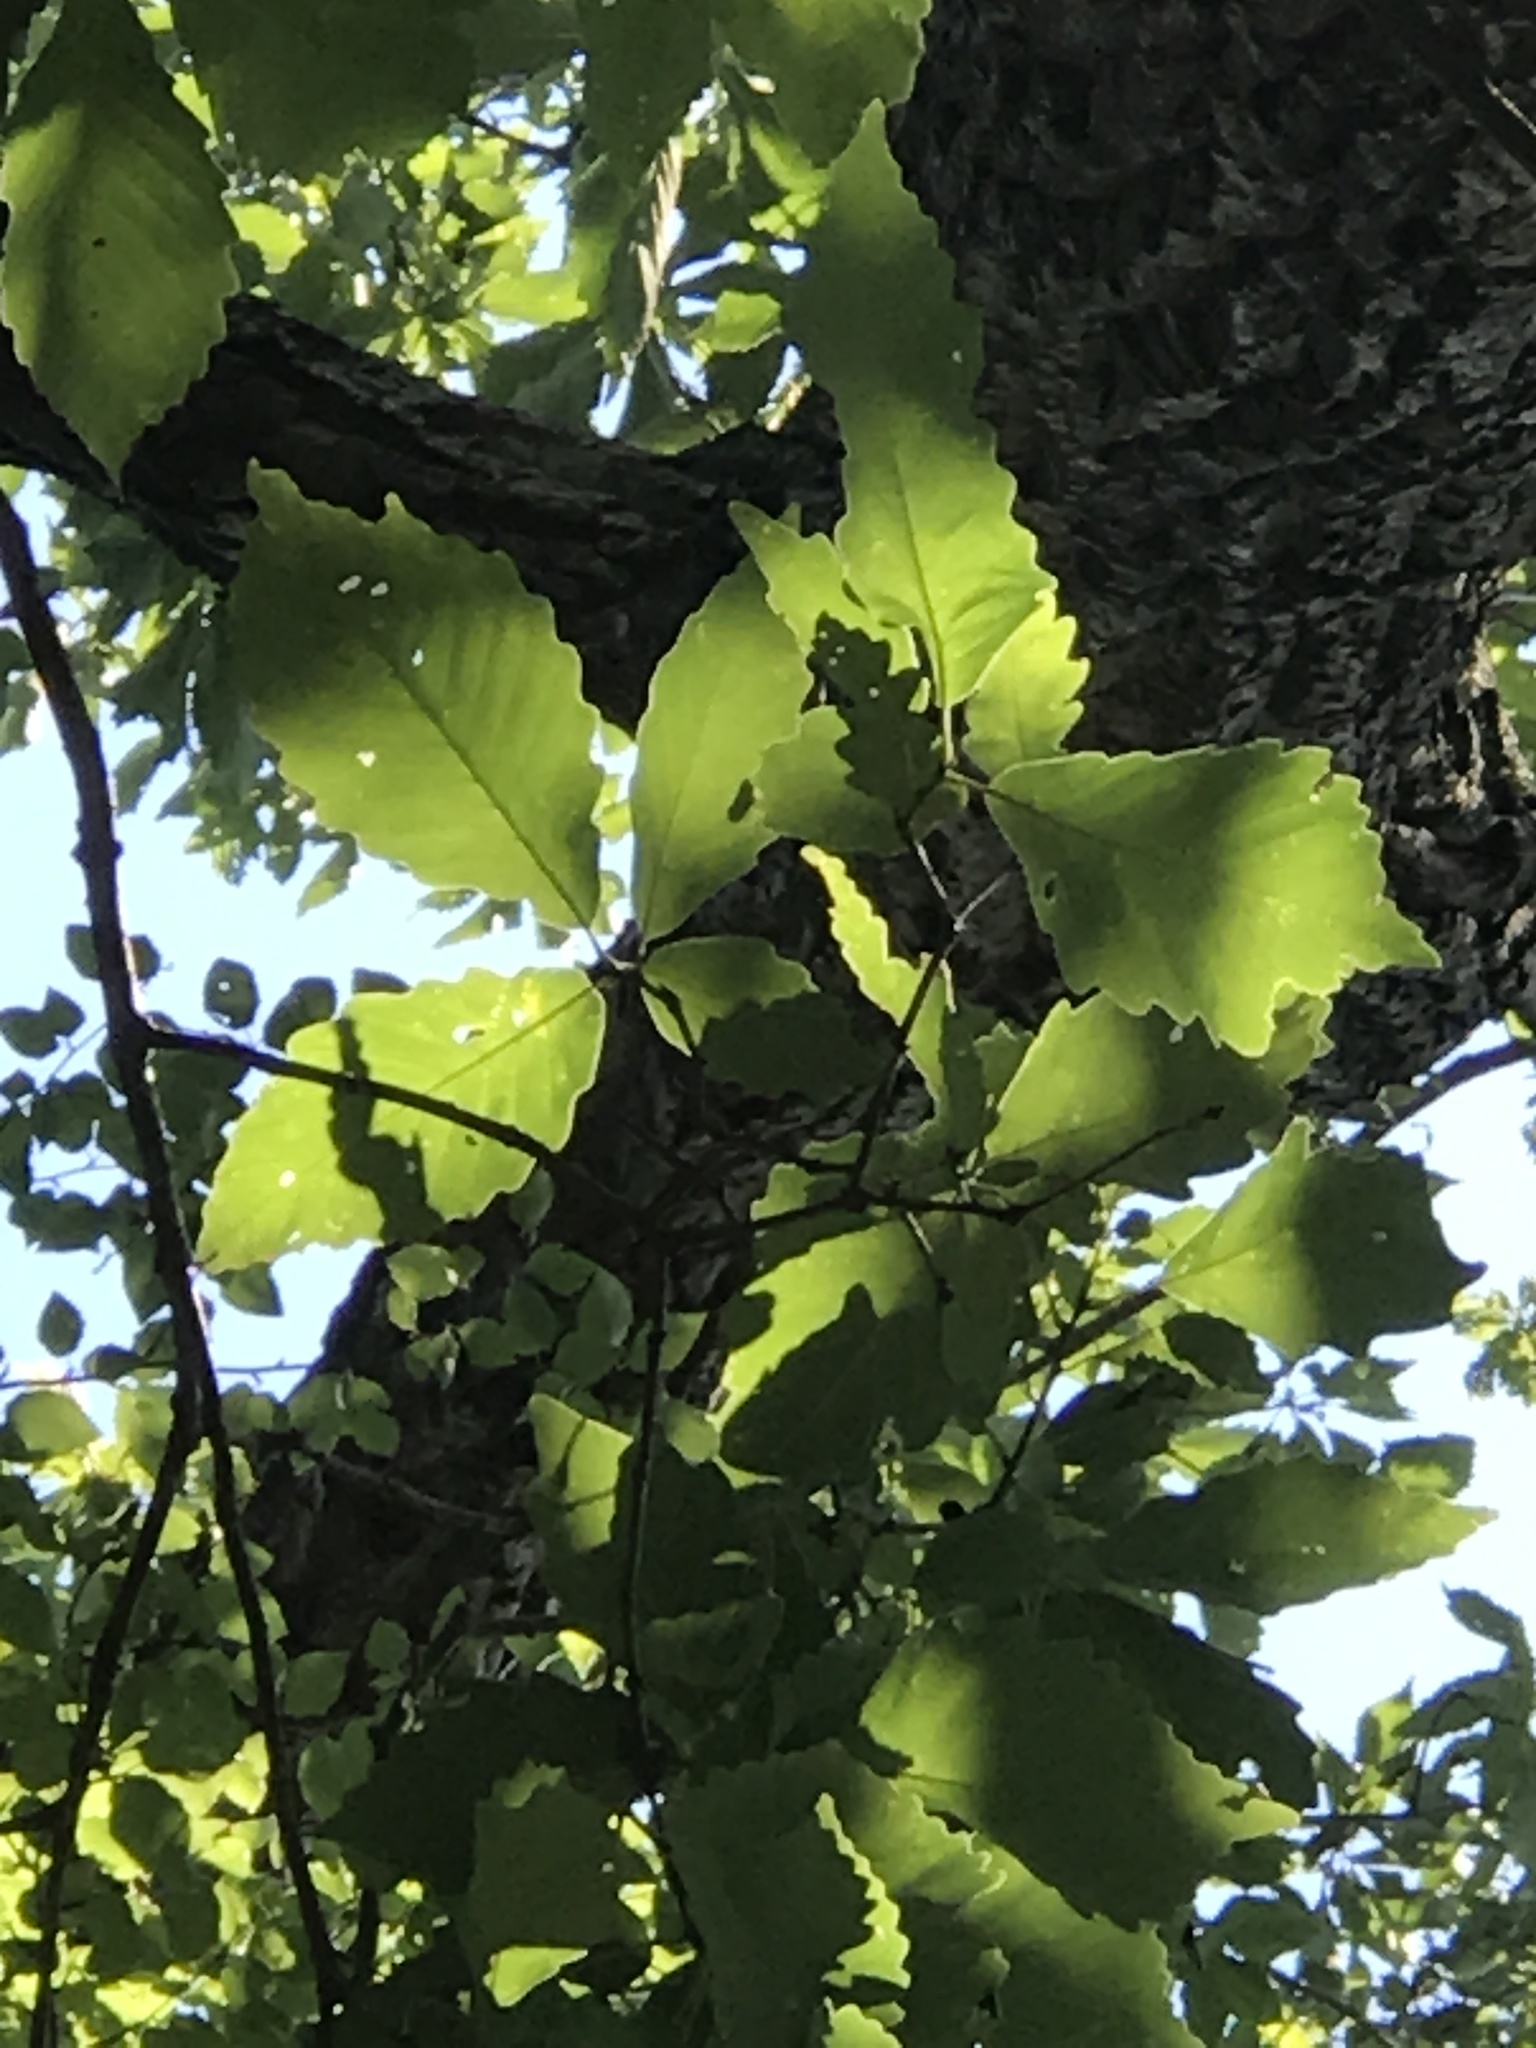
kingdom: Plantae
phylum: Tracheophyta
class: Magnoliopsida
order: Fagales
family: Fagaceae
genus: Quercus
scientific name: Quercus montana
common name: Chestnut oak
